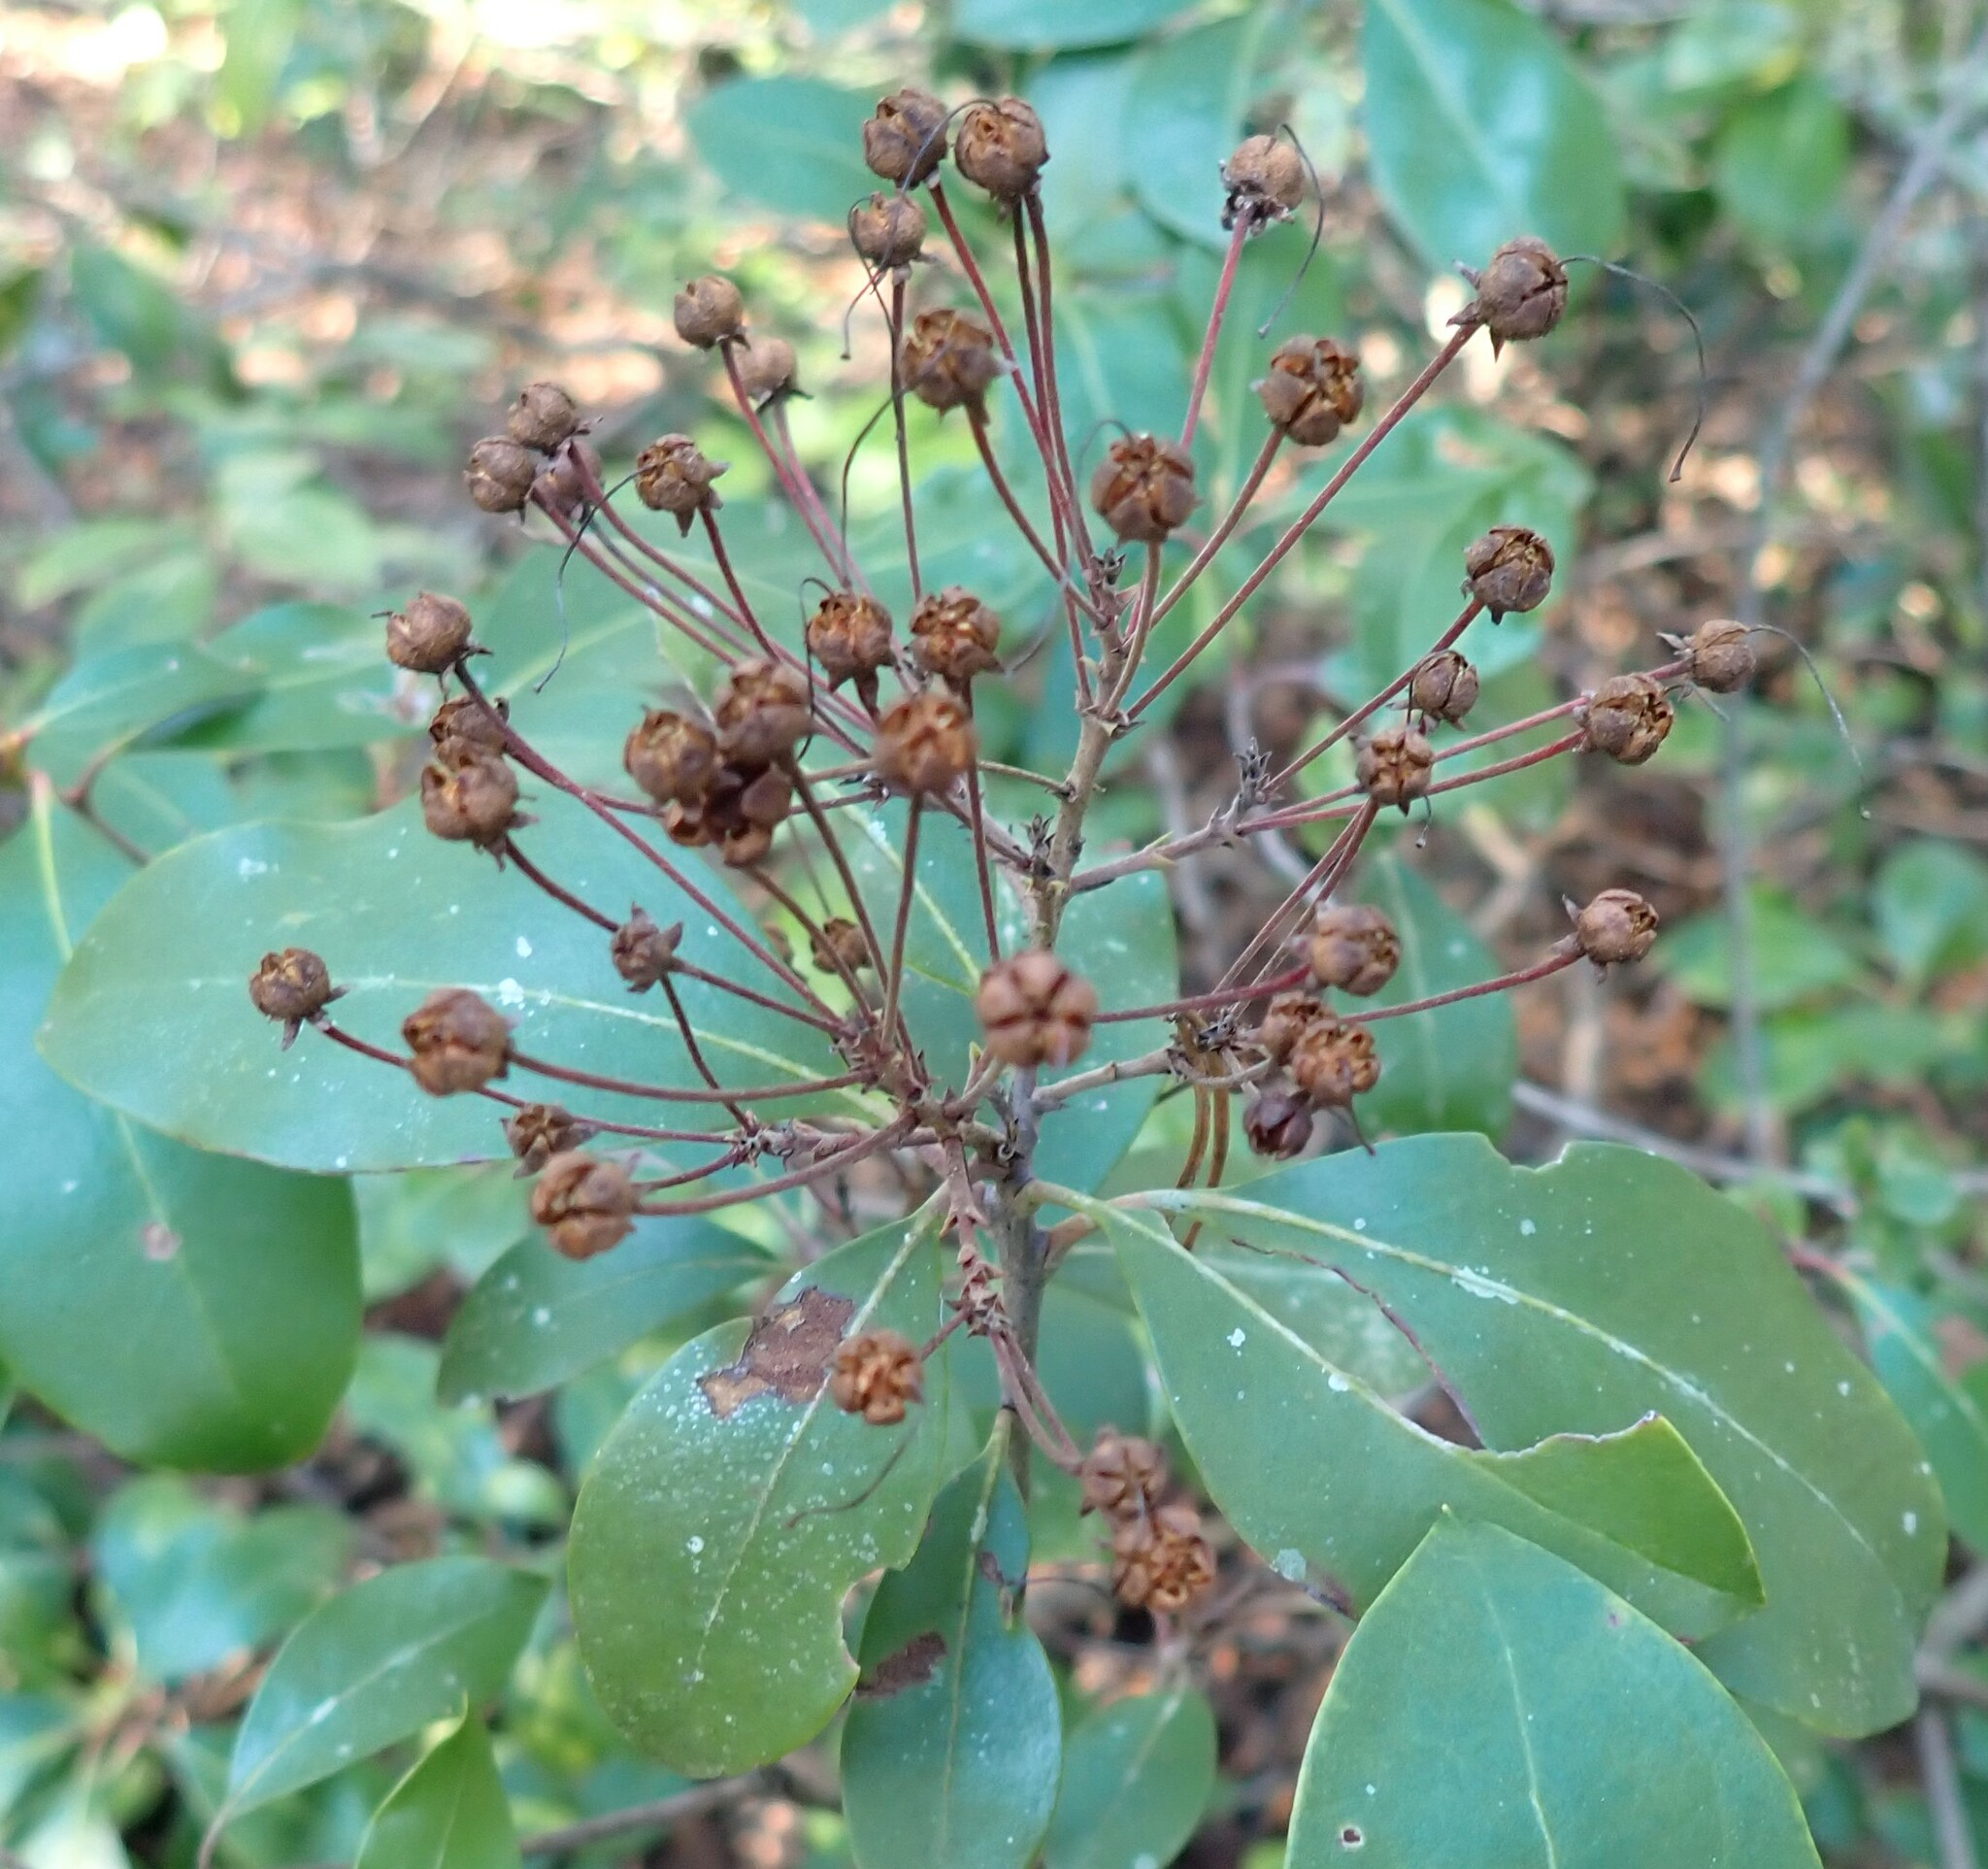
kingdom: Plantae
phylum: Tracheophyta
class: Magnoliopsida
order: Ericales
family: Ericaceae
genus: Kalmia
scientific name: Kalmia latifolia
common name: Mountain-laurel
